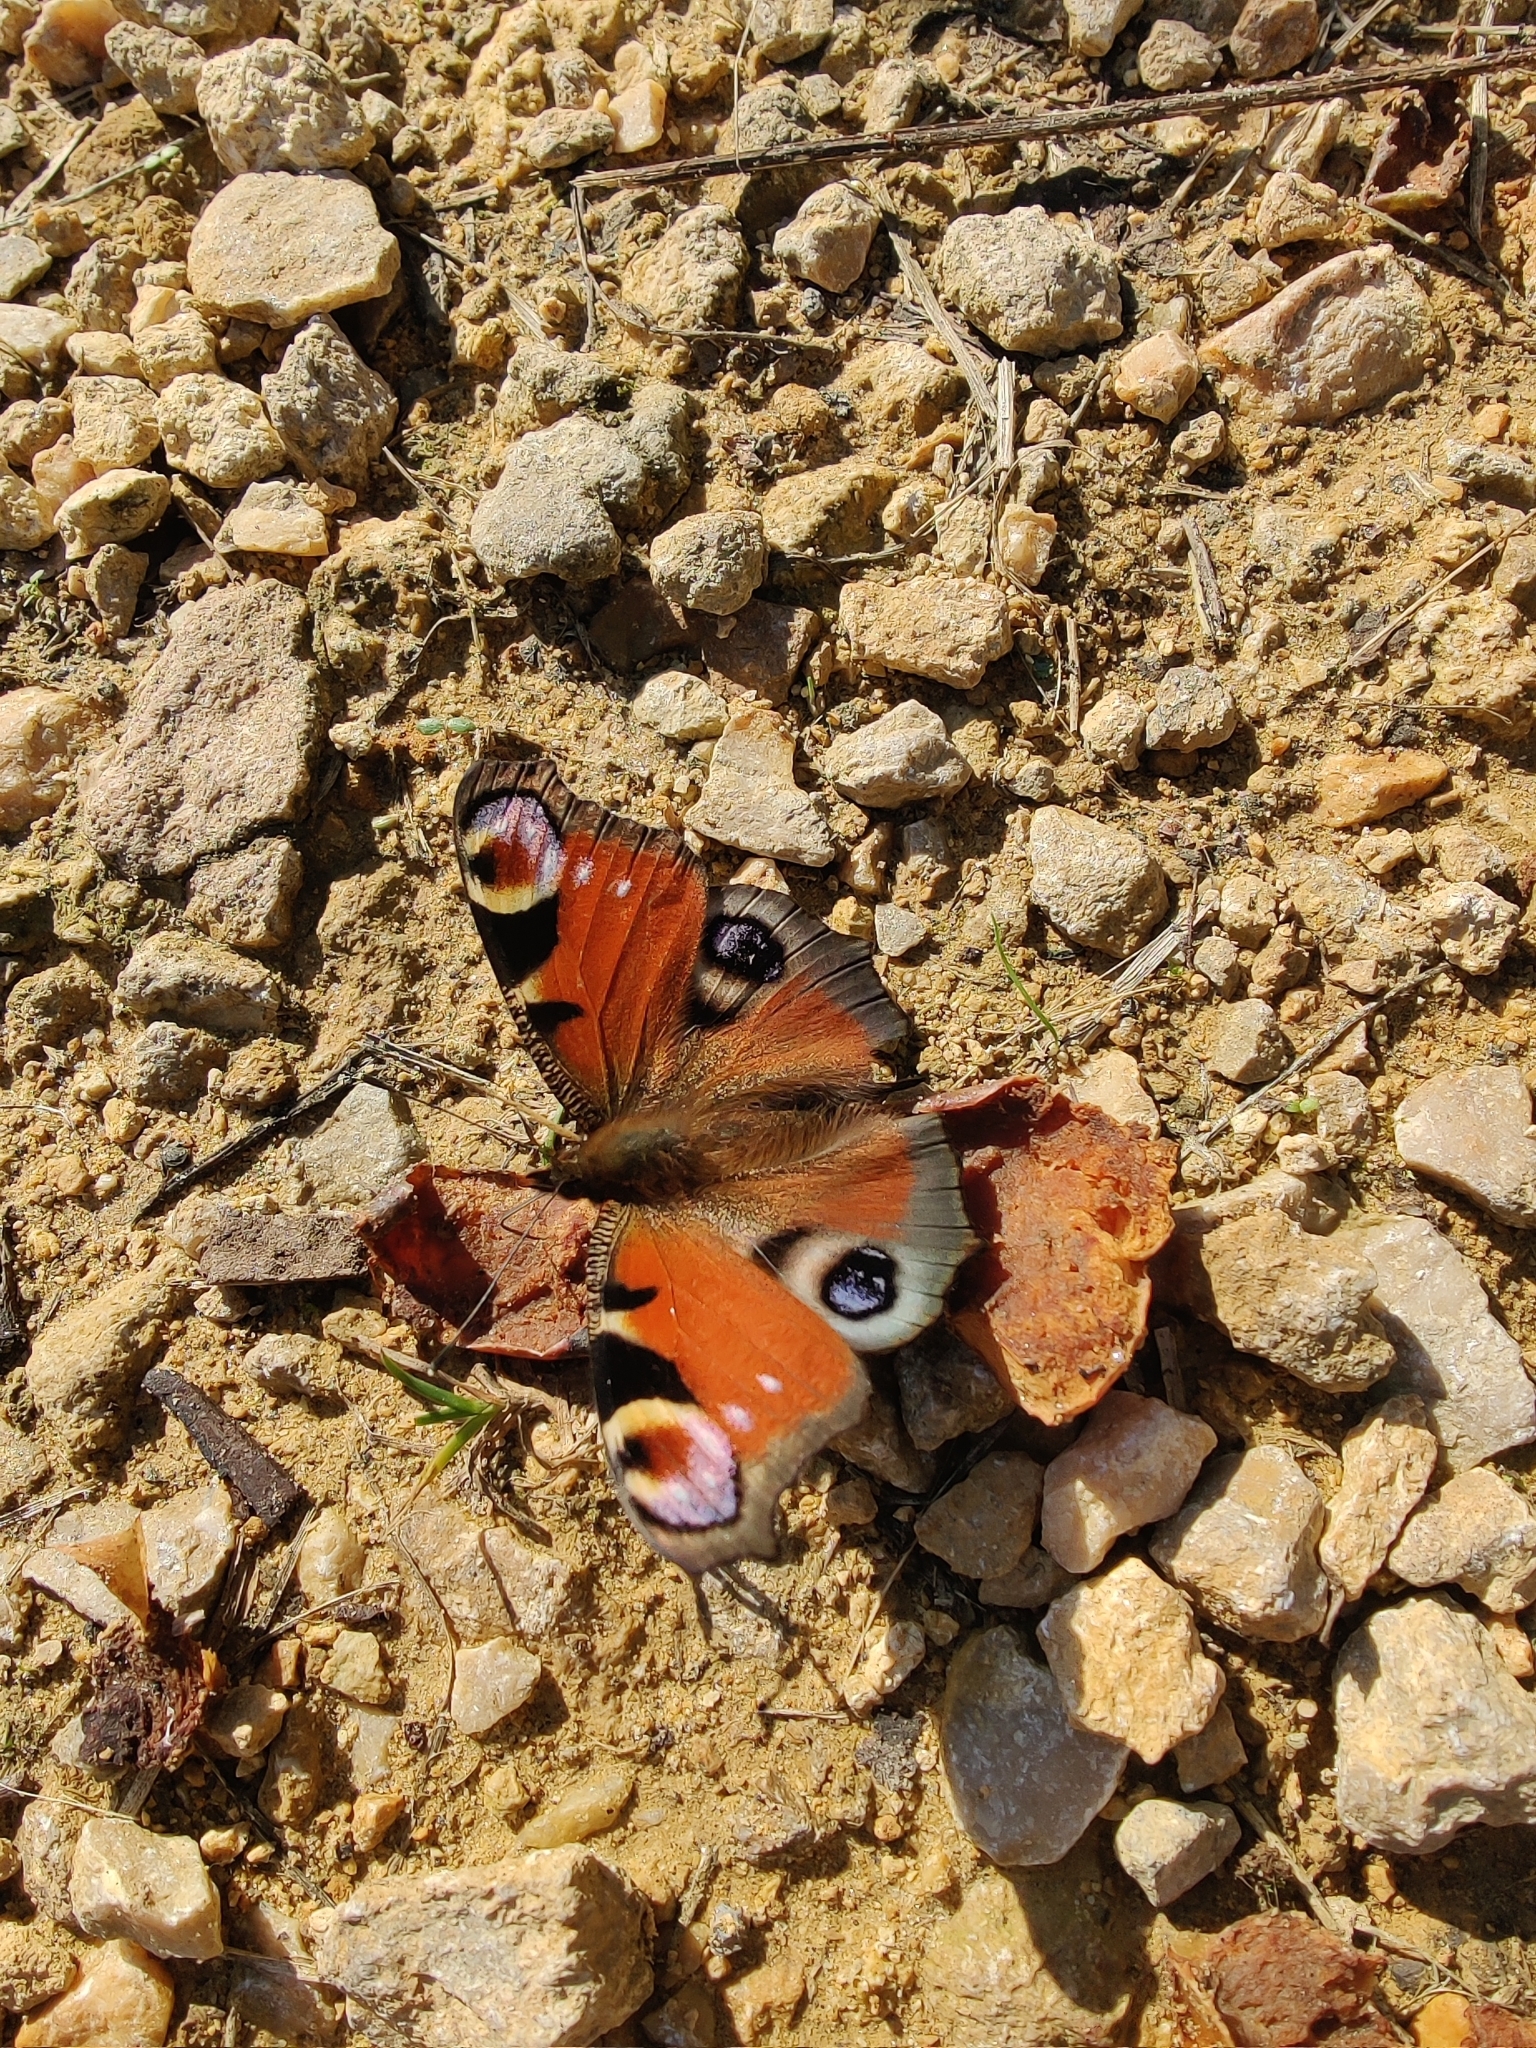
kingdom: Animalia
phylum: Arthropoda
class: Insecta
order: Lepidoptera
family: Nymphalidae
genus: Aglais
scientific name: Aglais io
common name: Peacock
